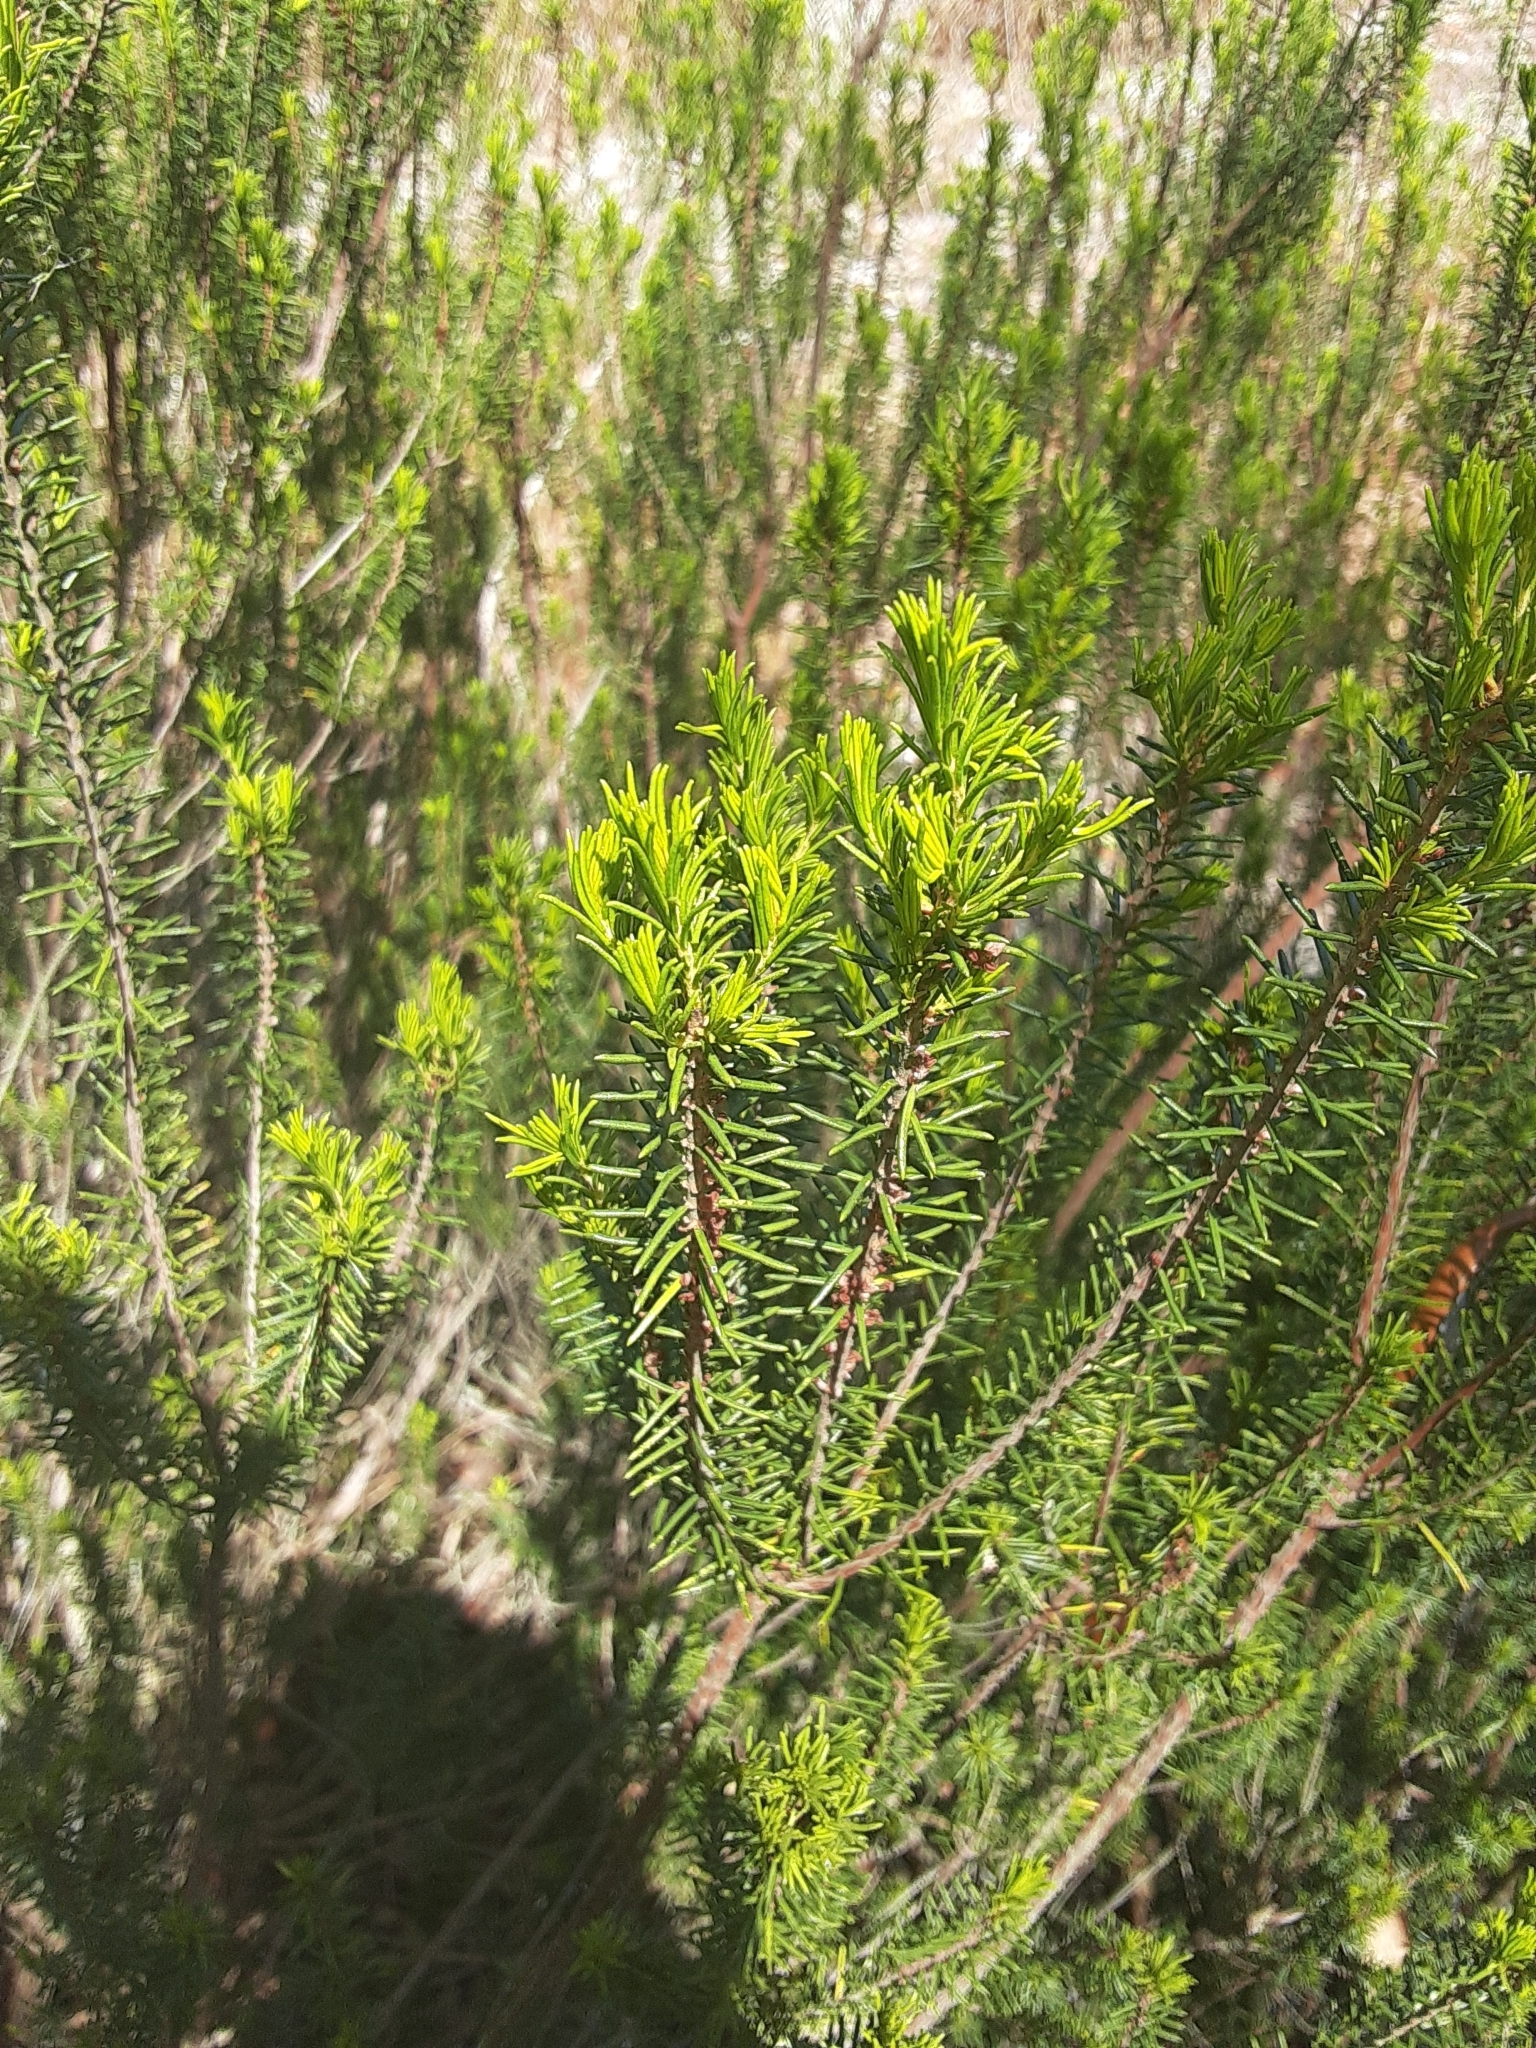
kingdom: Plantae
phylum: Tracheophyta
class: Magnoliopsida
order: Ericales
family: Ericaceae
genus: Ceratiola
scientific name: Ceratiola ericoides
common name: Sandhill-rosemary
